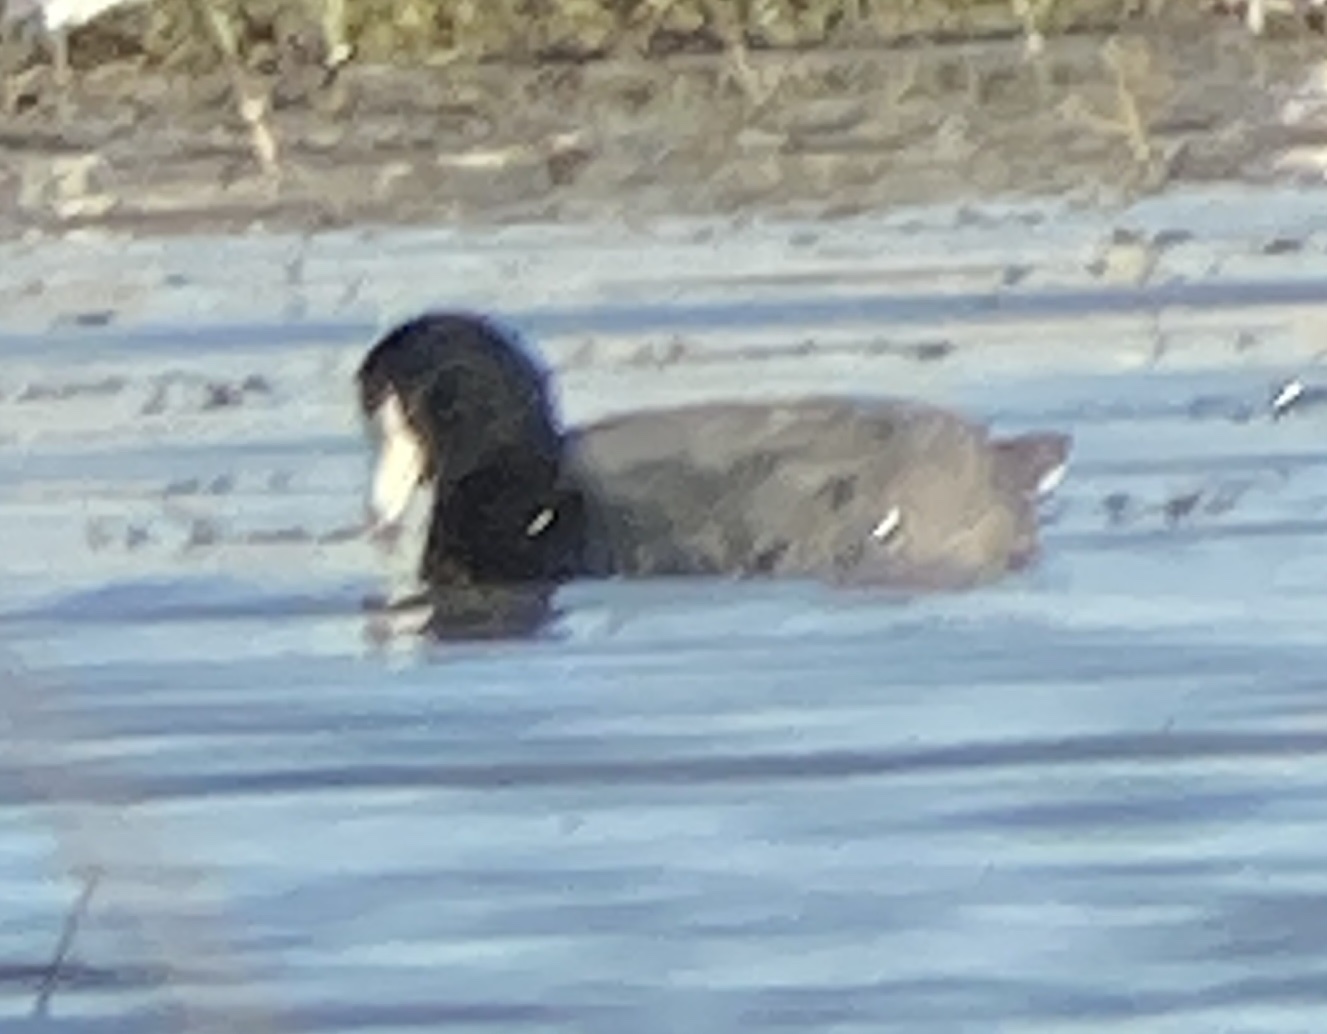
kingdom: Animalia
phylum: Chordata
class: Aves
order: Gruiformes
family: Rallidae
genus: Fulica
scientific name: Fulica americana
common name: American coot
